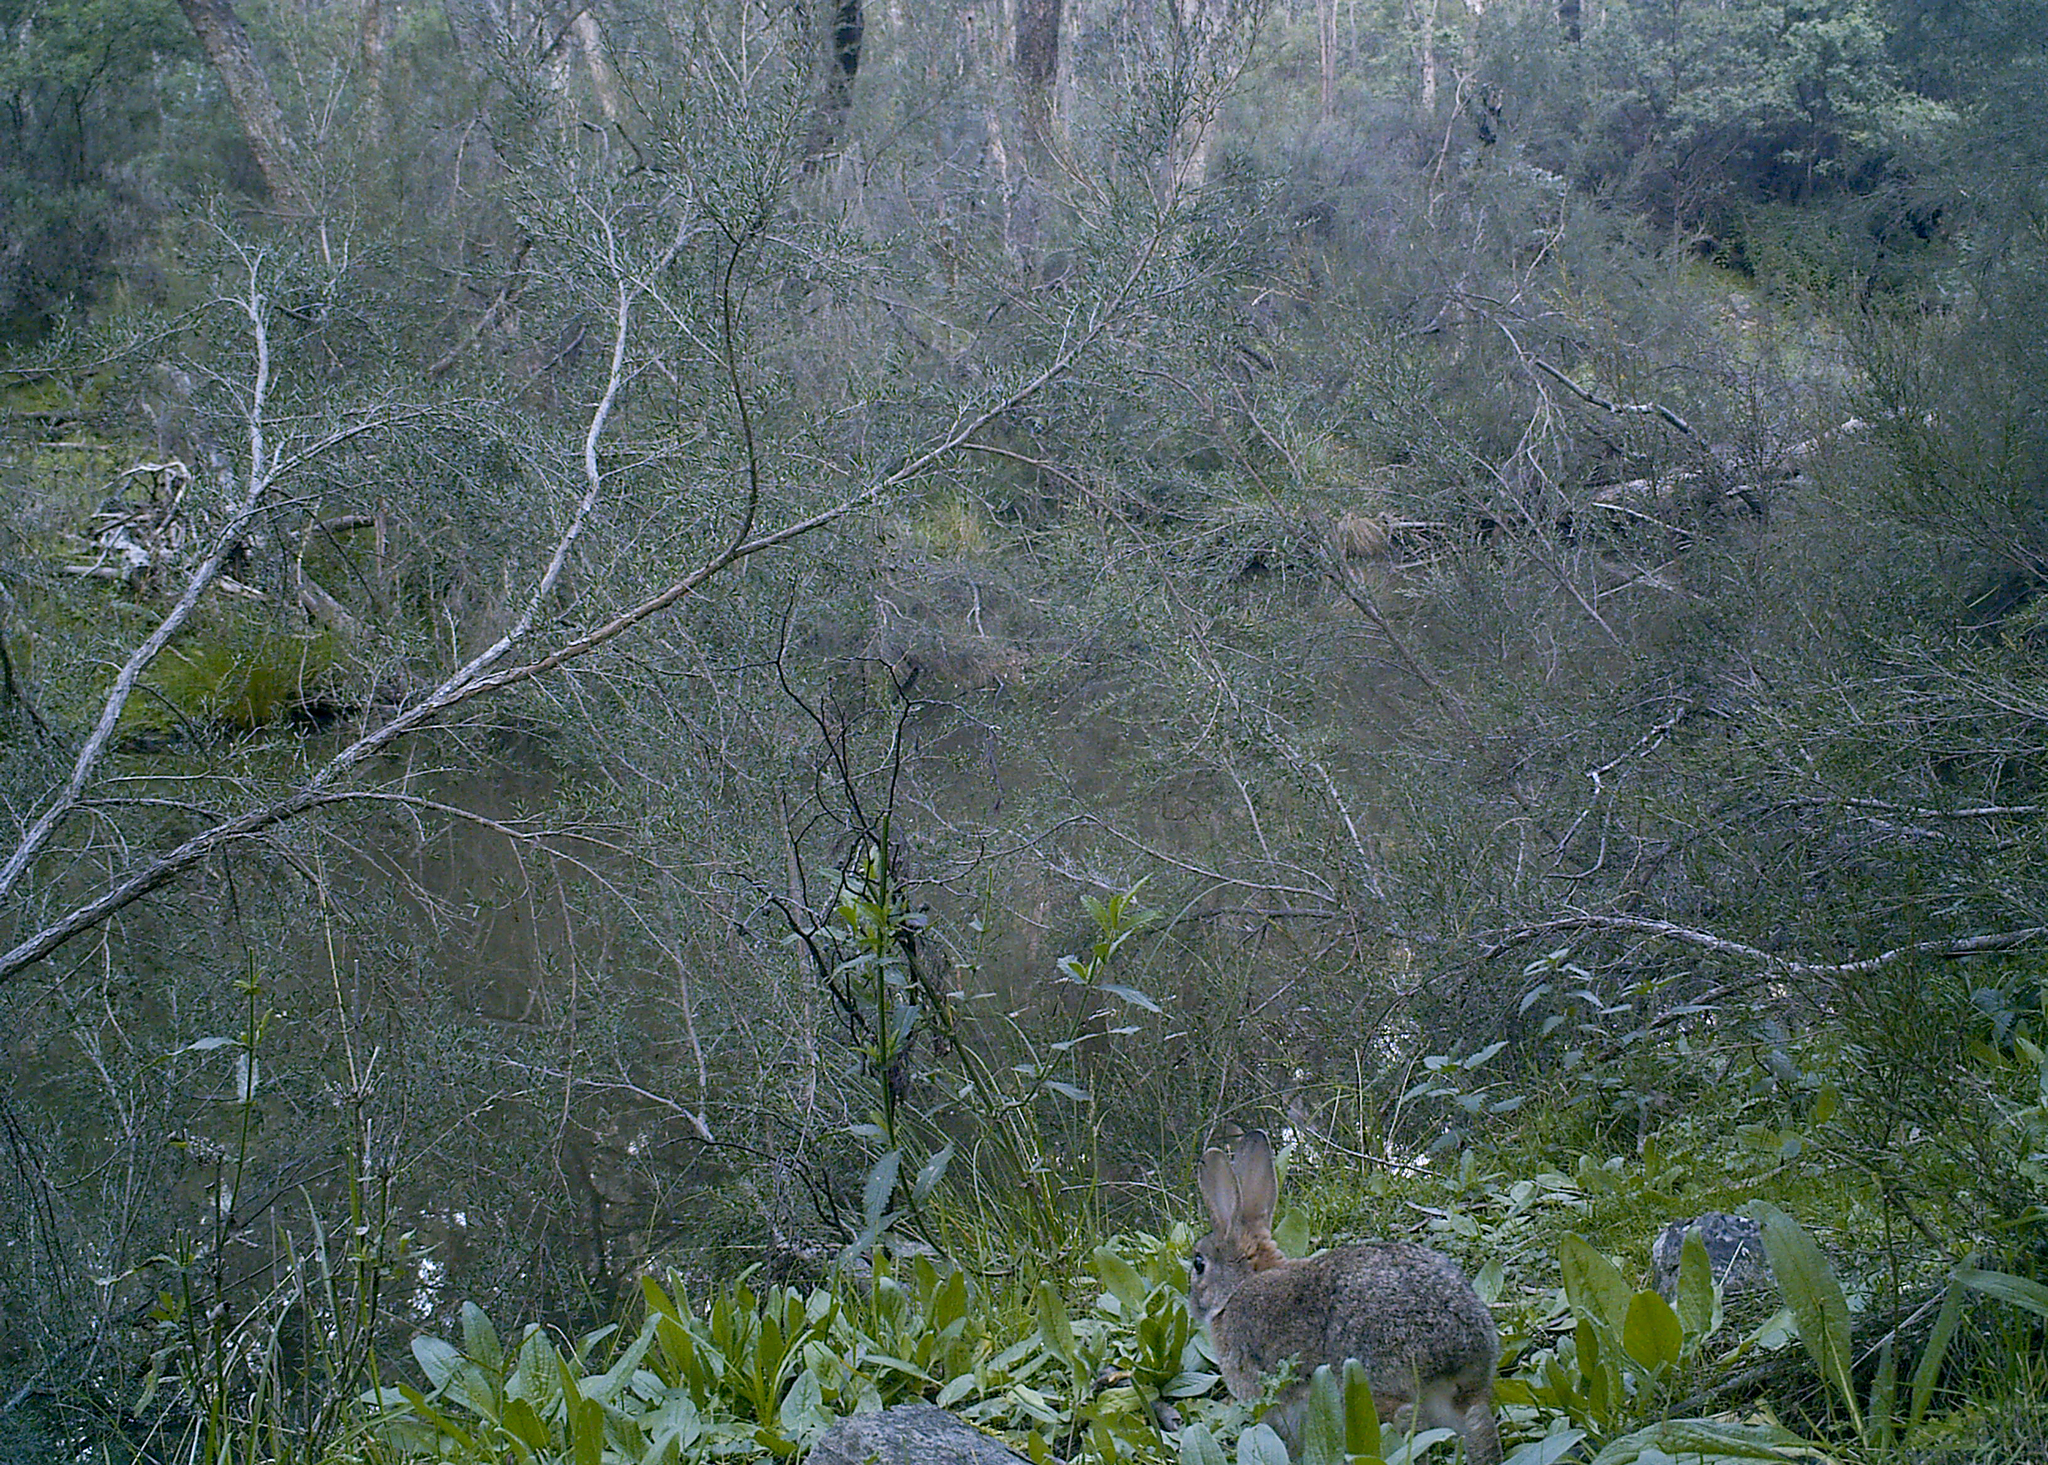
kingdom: Animalia
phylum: Chordata
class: Mammalia
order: Lagomorpha
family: Leporidae
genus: Oryctolagus
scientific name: Oryctolagus cuniculus
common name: European rabbit
